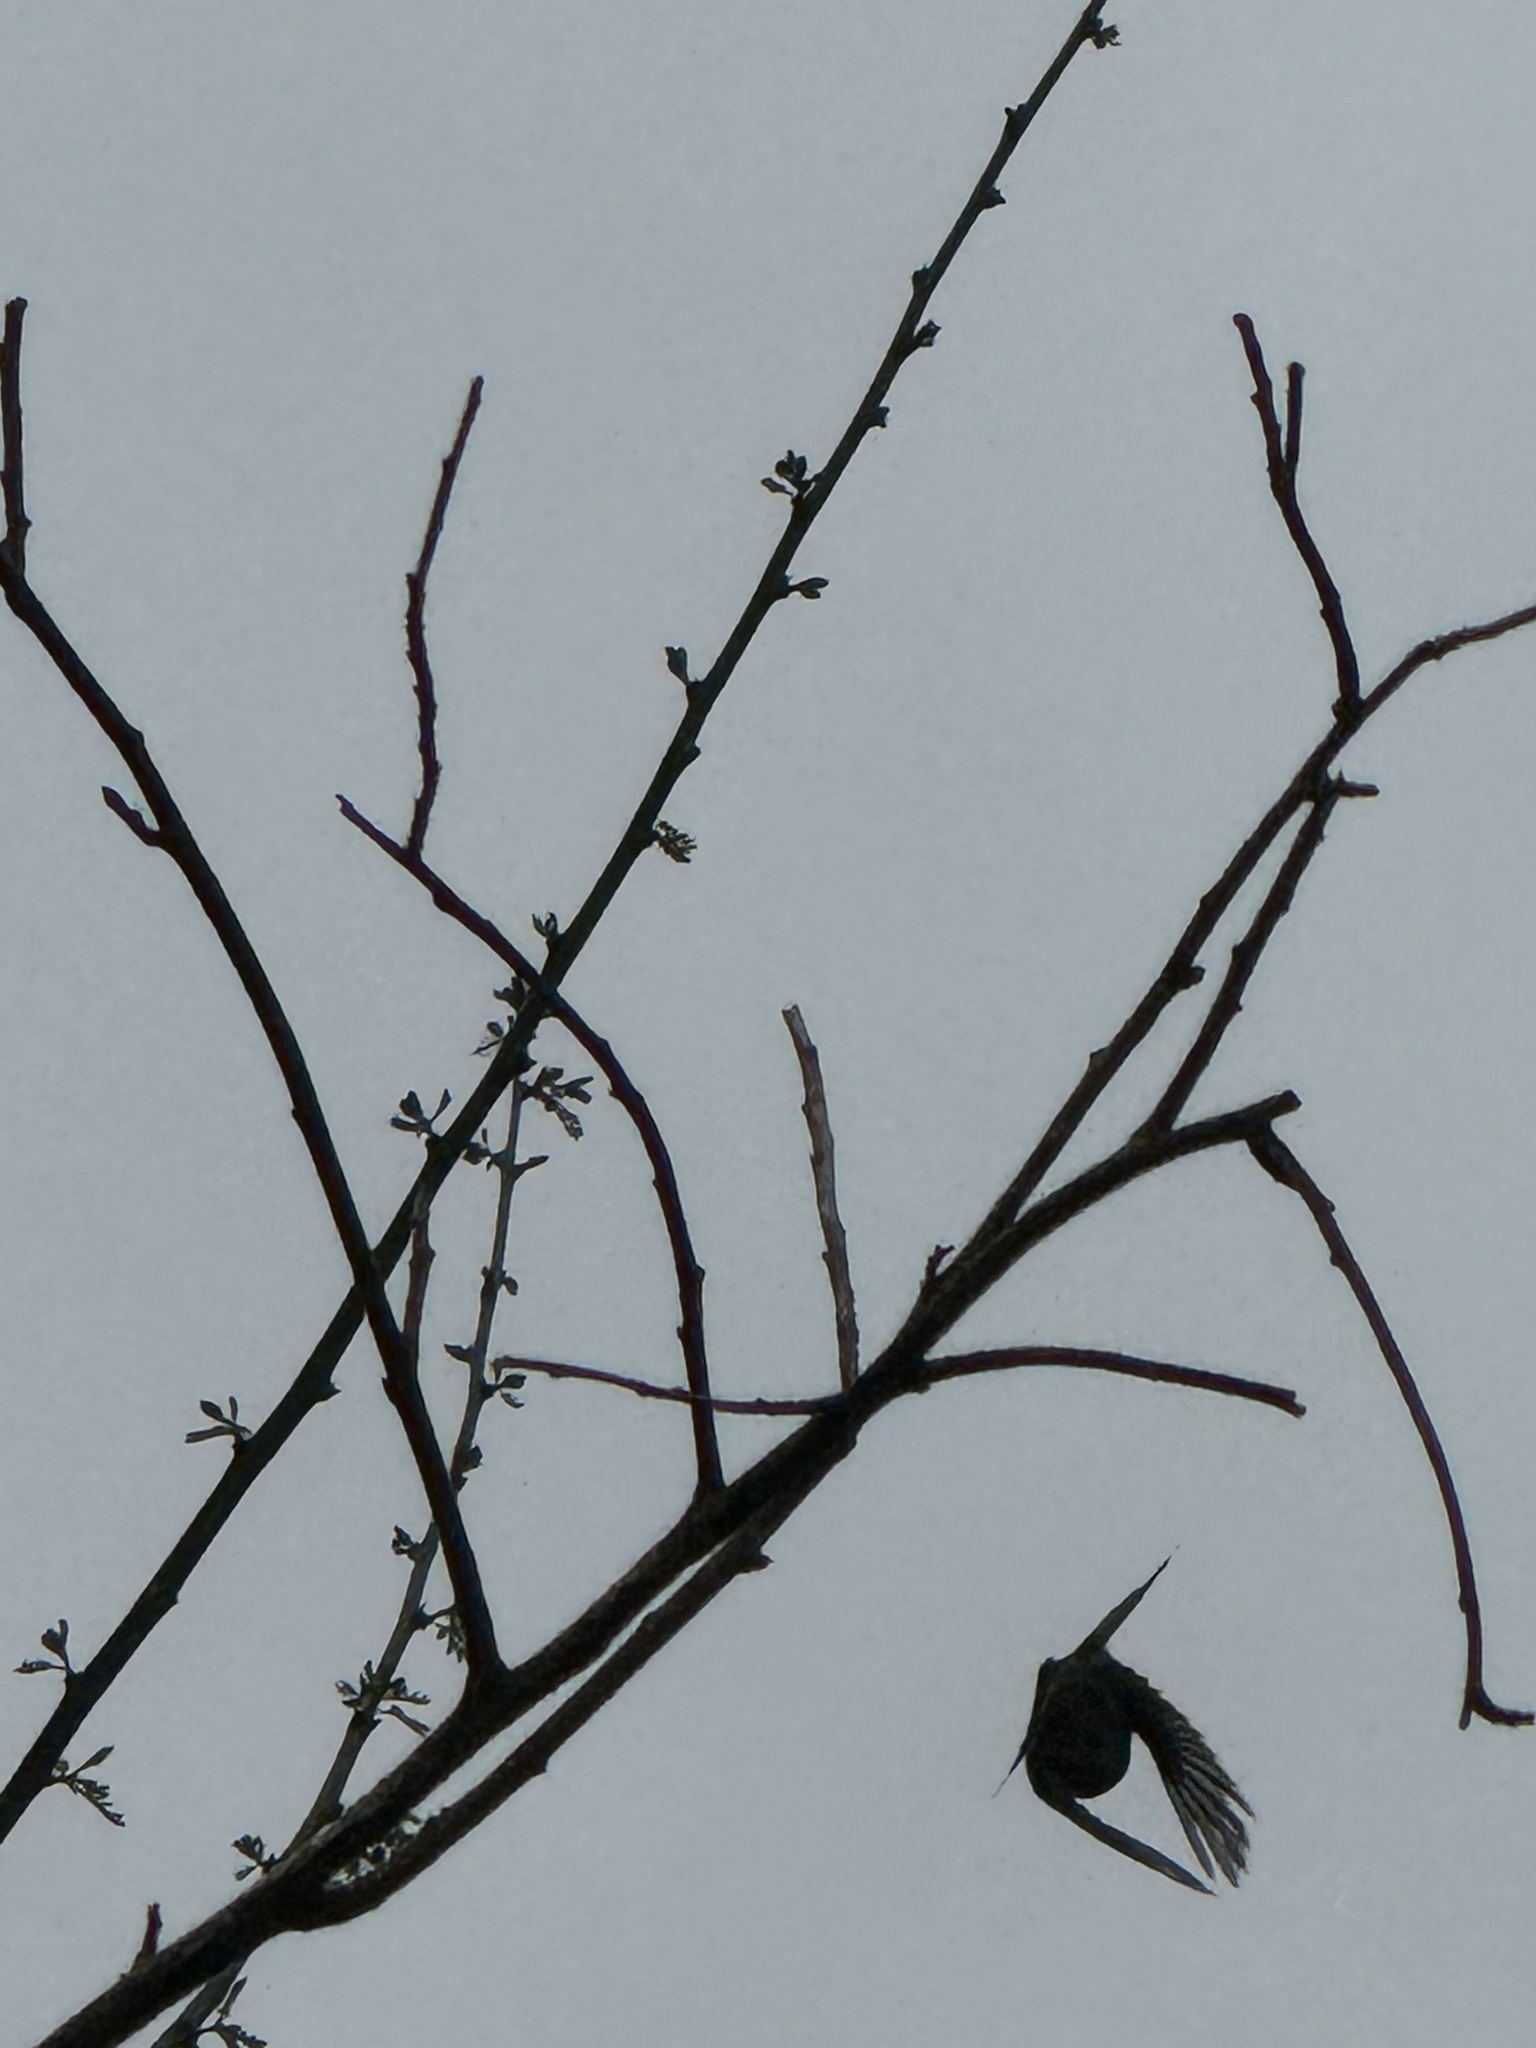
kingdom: Animalia
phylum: Chordata
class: Aves
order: Passeriformes
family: Tyrannidae
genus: Sayornis
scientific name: Sayornis nigricans
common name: Black phoebe
